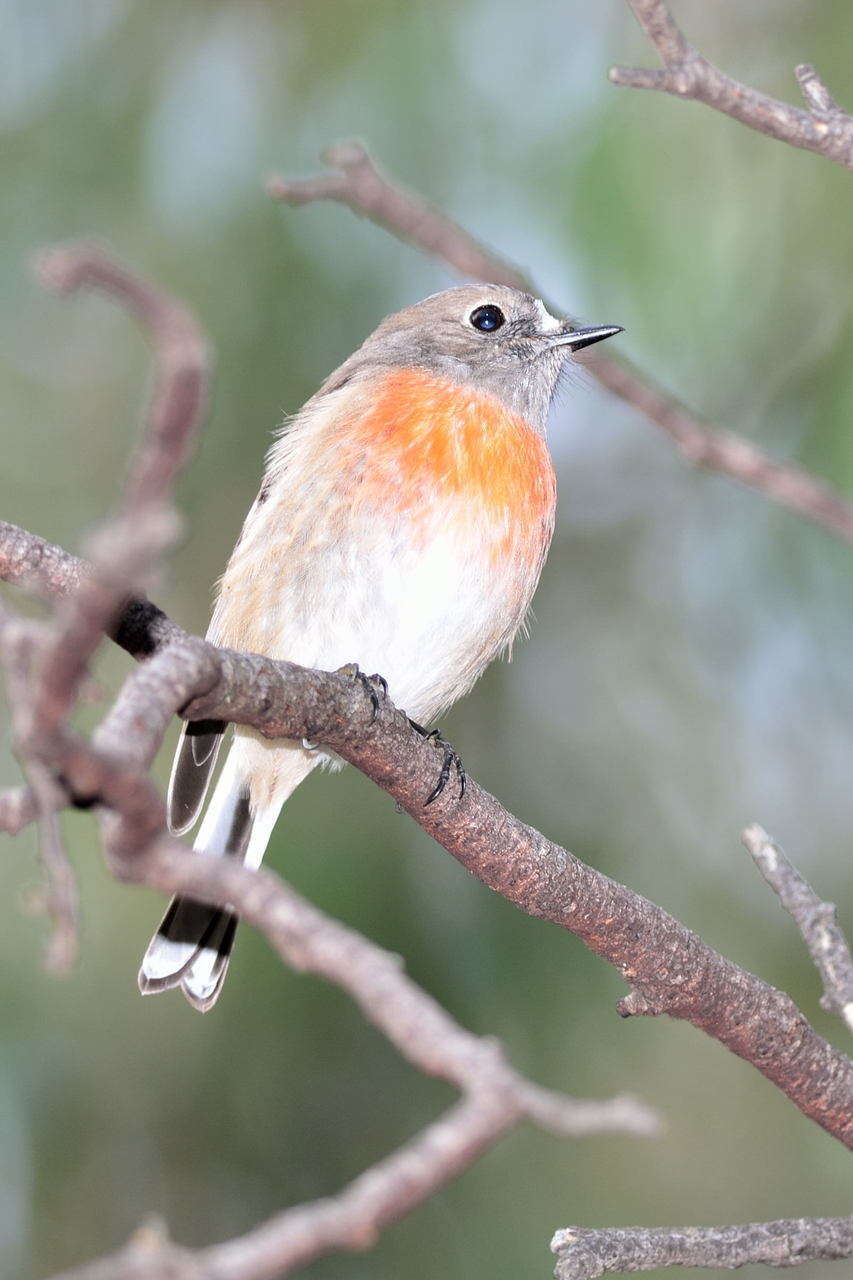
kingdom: Animalia
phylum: Chordata
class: Aves
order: Passeriformes
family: Petroicidae
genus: Petroica
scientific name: Petroica boodang
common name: Scarlet robin
